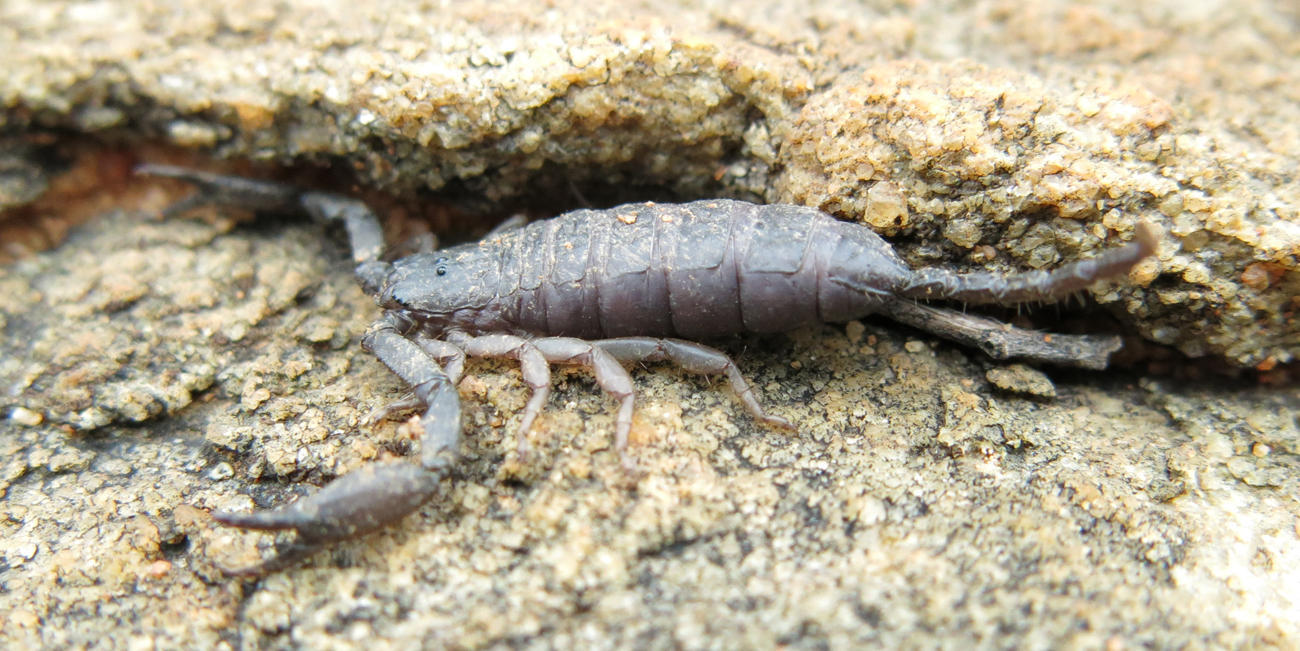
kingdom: Animalia
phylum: Arthropoda
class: Arachnida
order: Scorpiones
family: Hormuridae
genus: Hadogenes
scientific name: Hadogenes troglodytes
